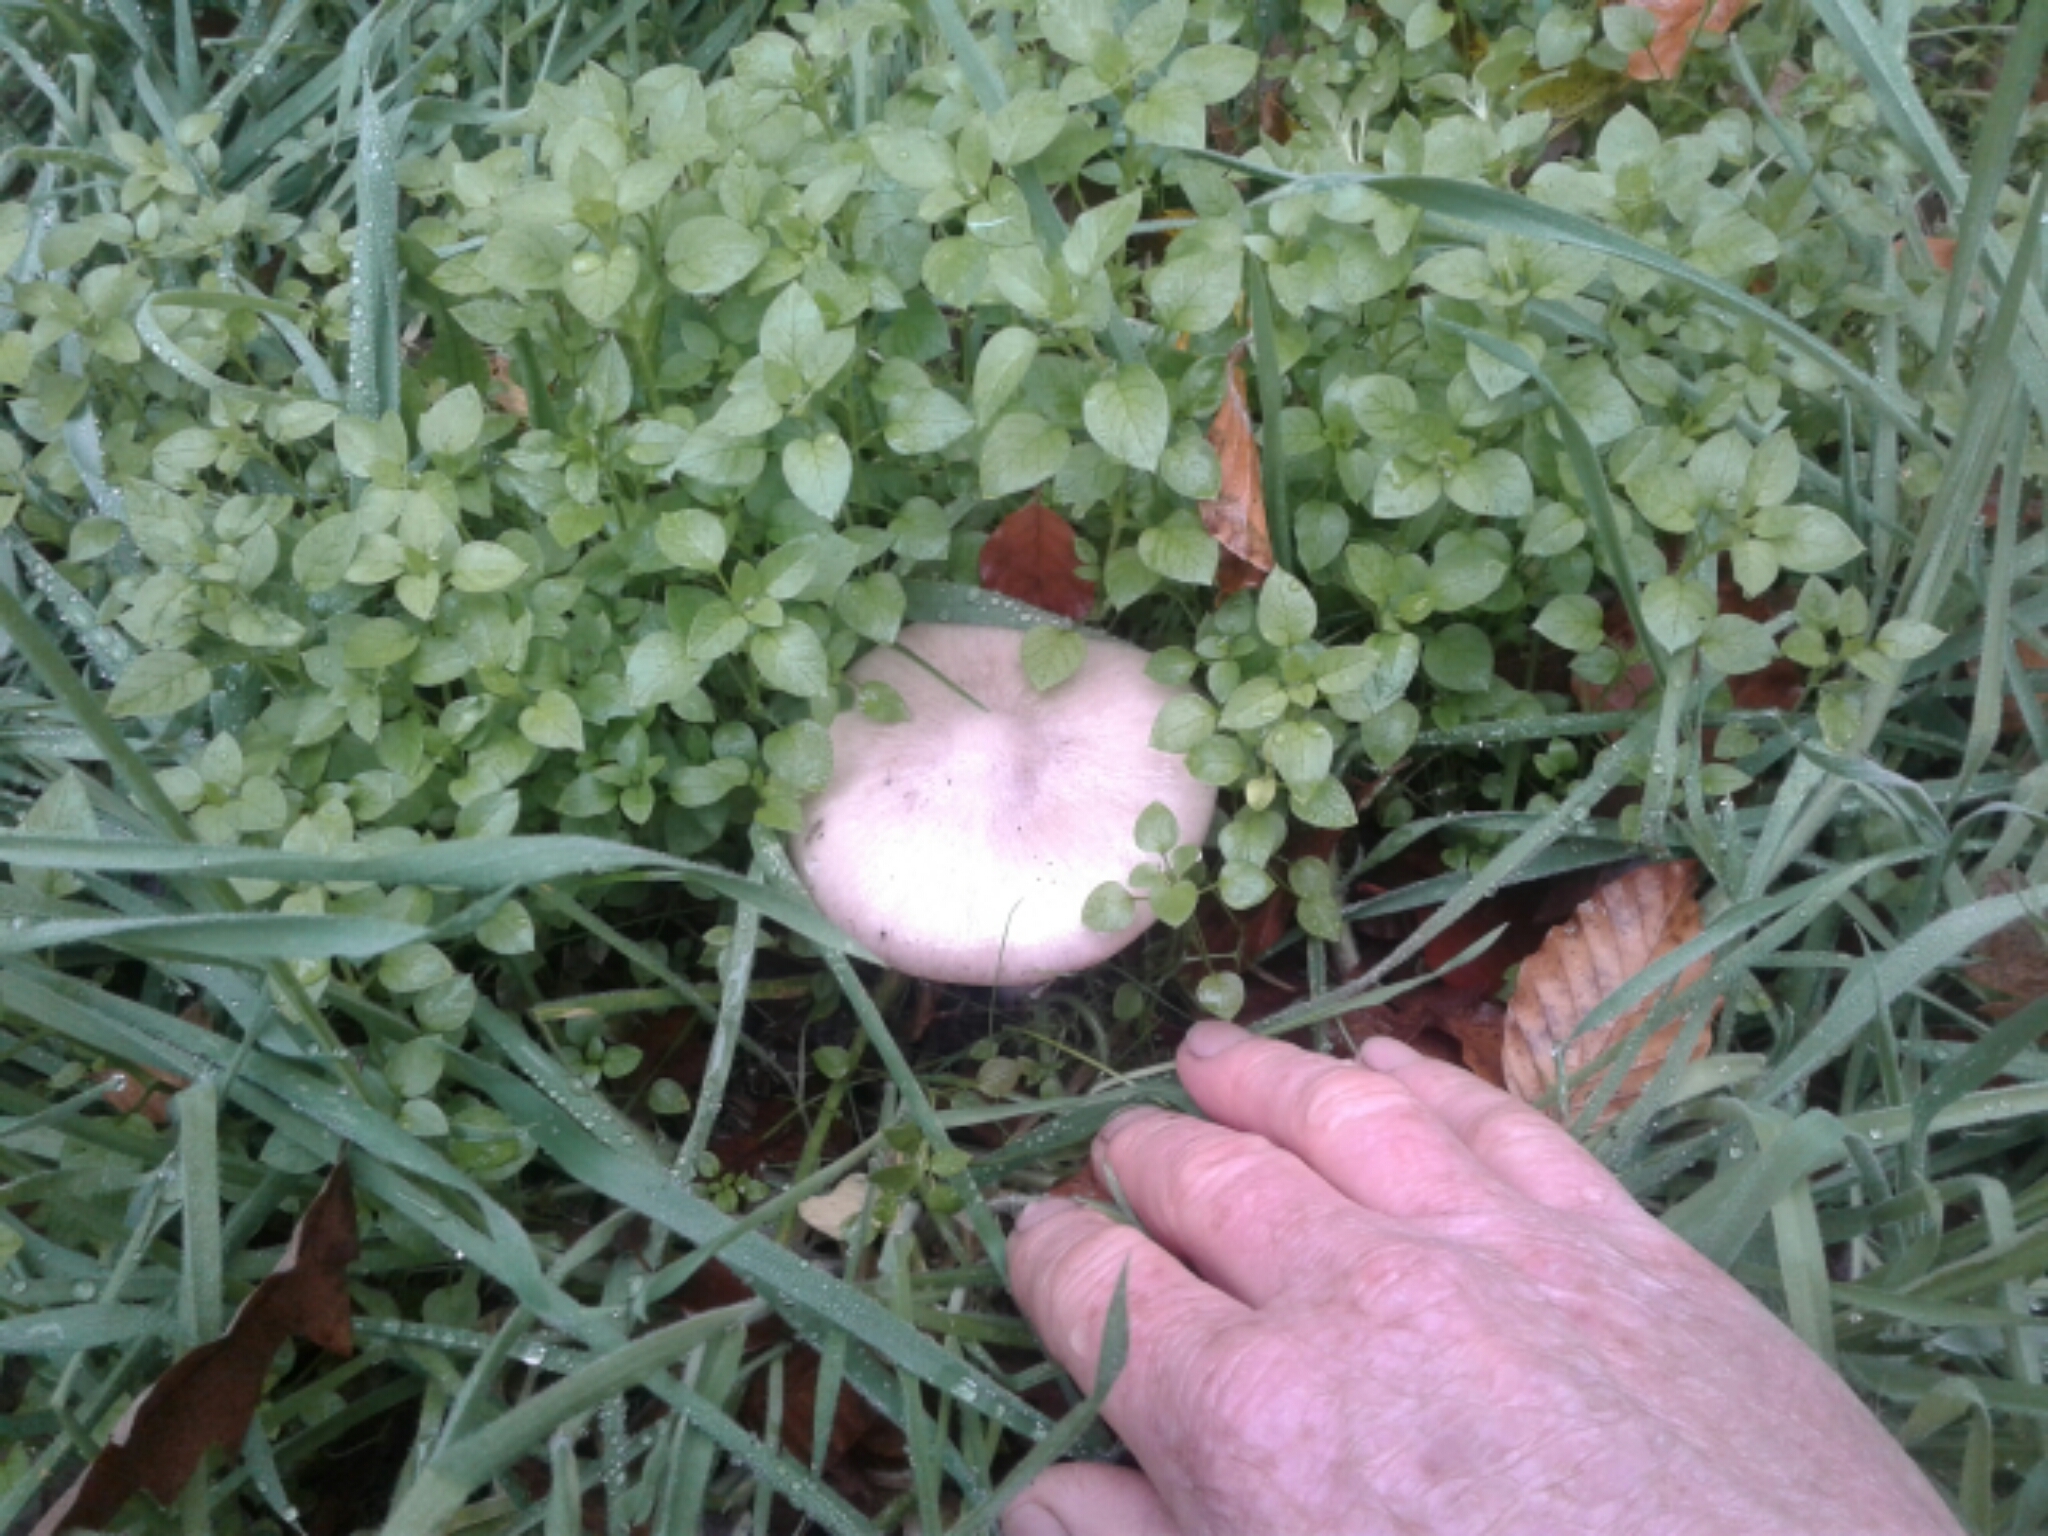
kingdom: Fungi
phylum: Basidiomycota
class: Agaricomycetes
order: Agaricales
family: Pluteaceae
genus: Volvopluteus
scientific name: Volvopluteus gloiocephalus
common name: Stubble rosegill
